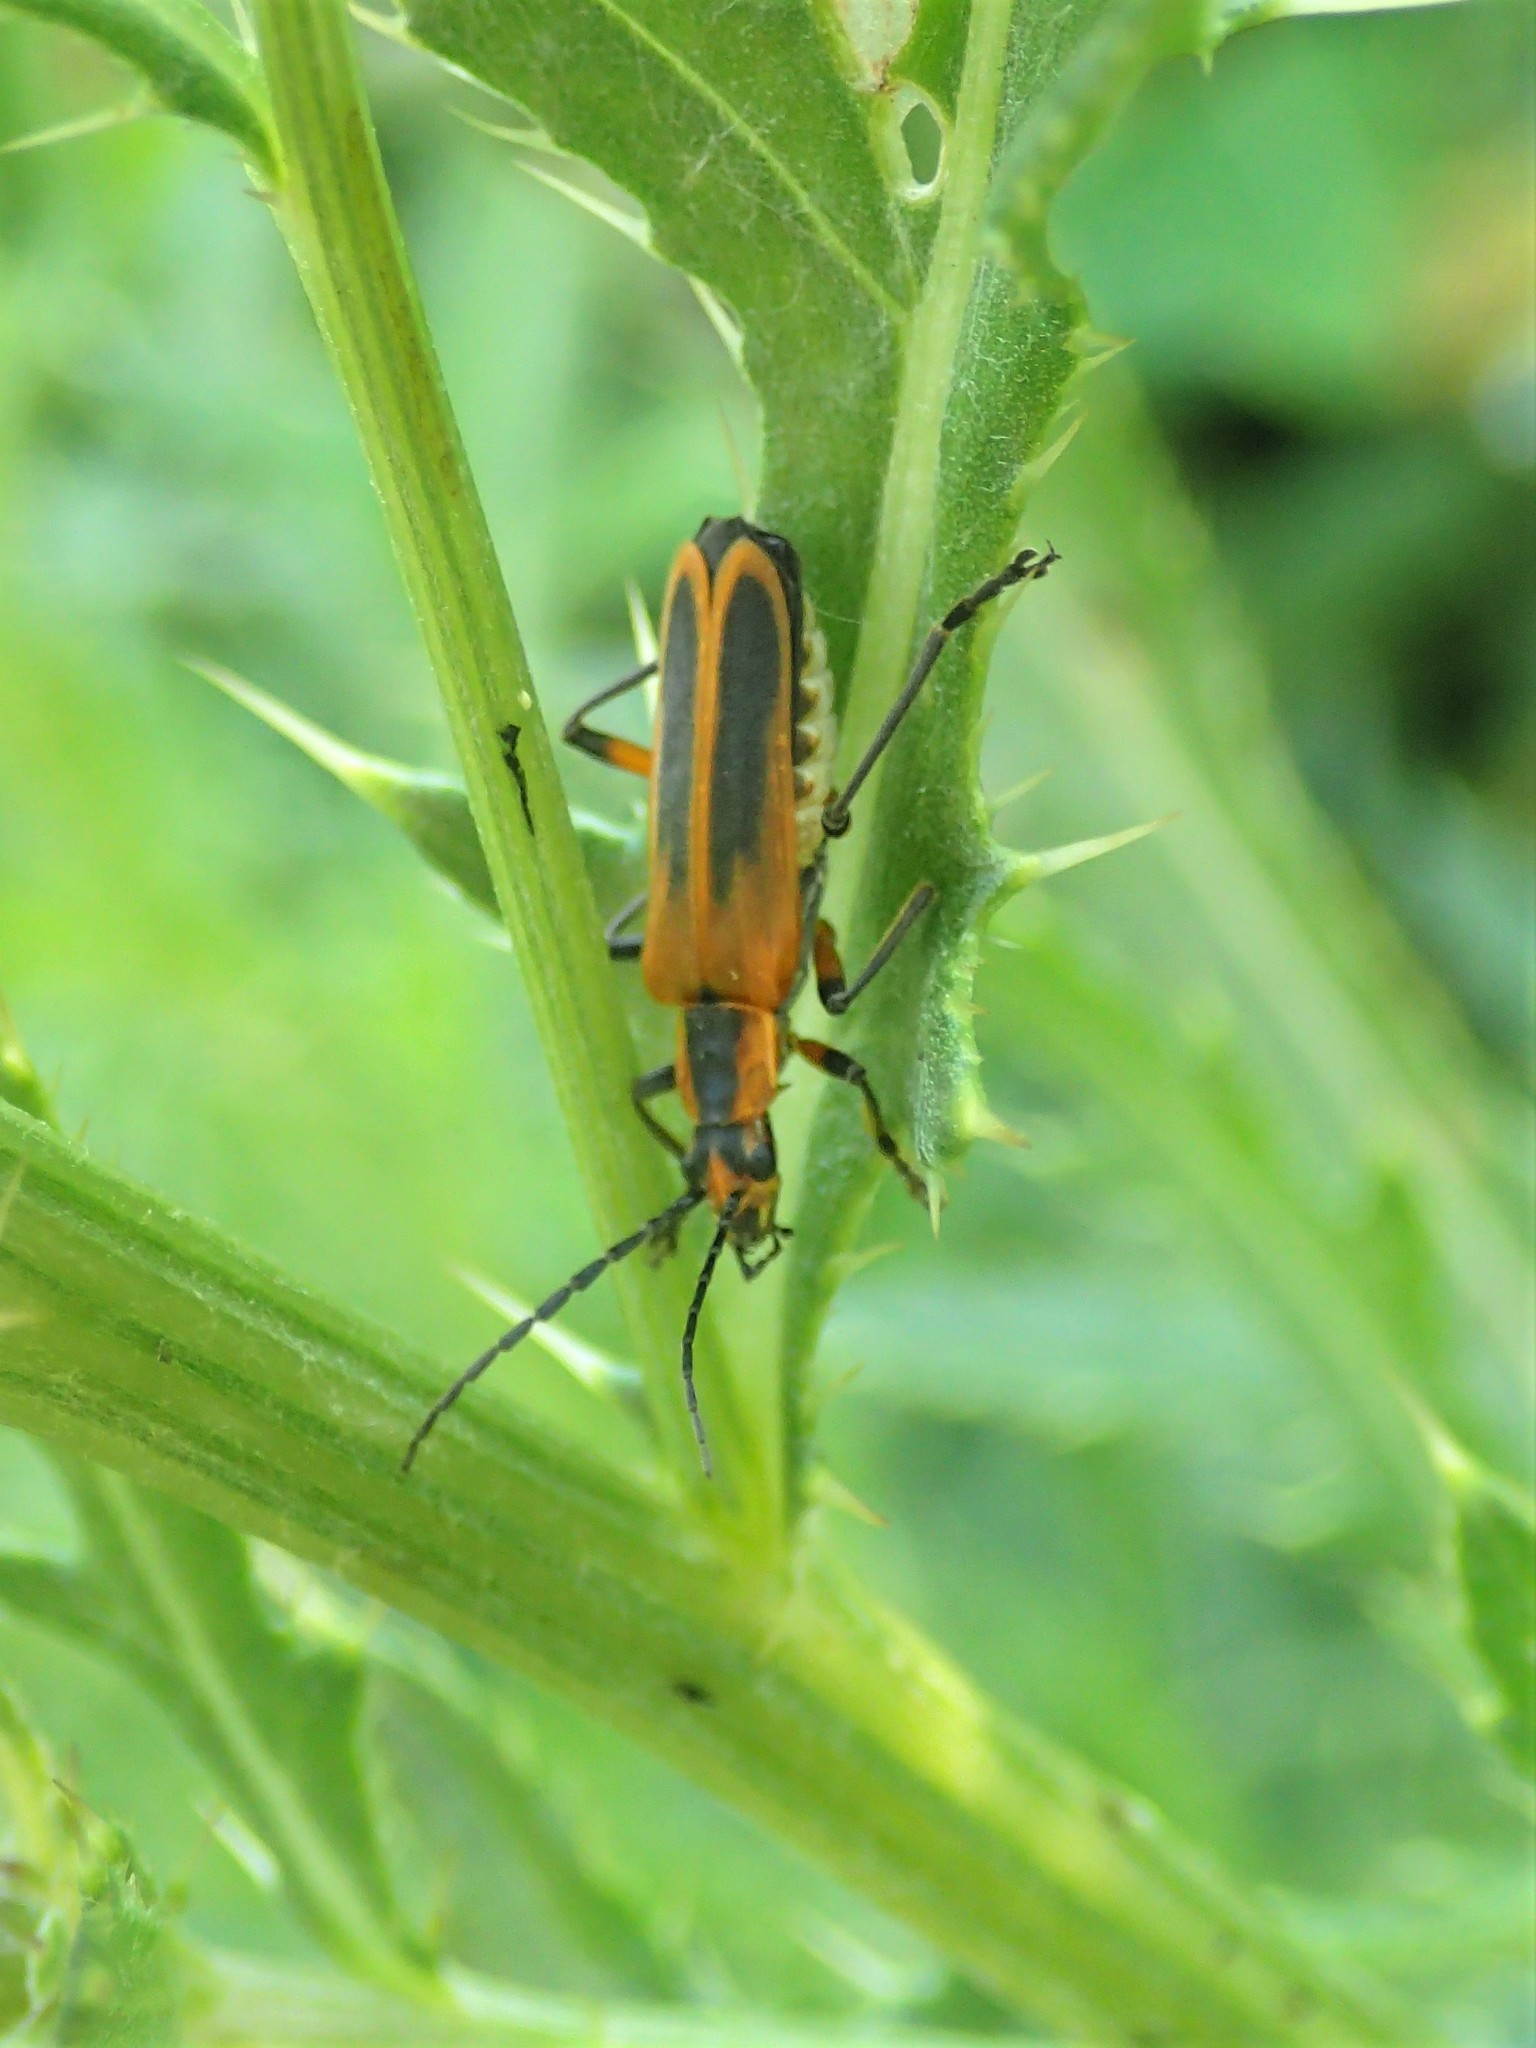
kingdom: Animalia
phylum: Arthropoda
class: Insecta
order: Coleoptera
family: Cantharidae
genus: Chauliognathus
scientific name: Chauliognathus marginatus
